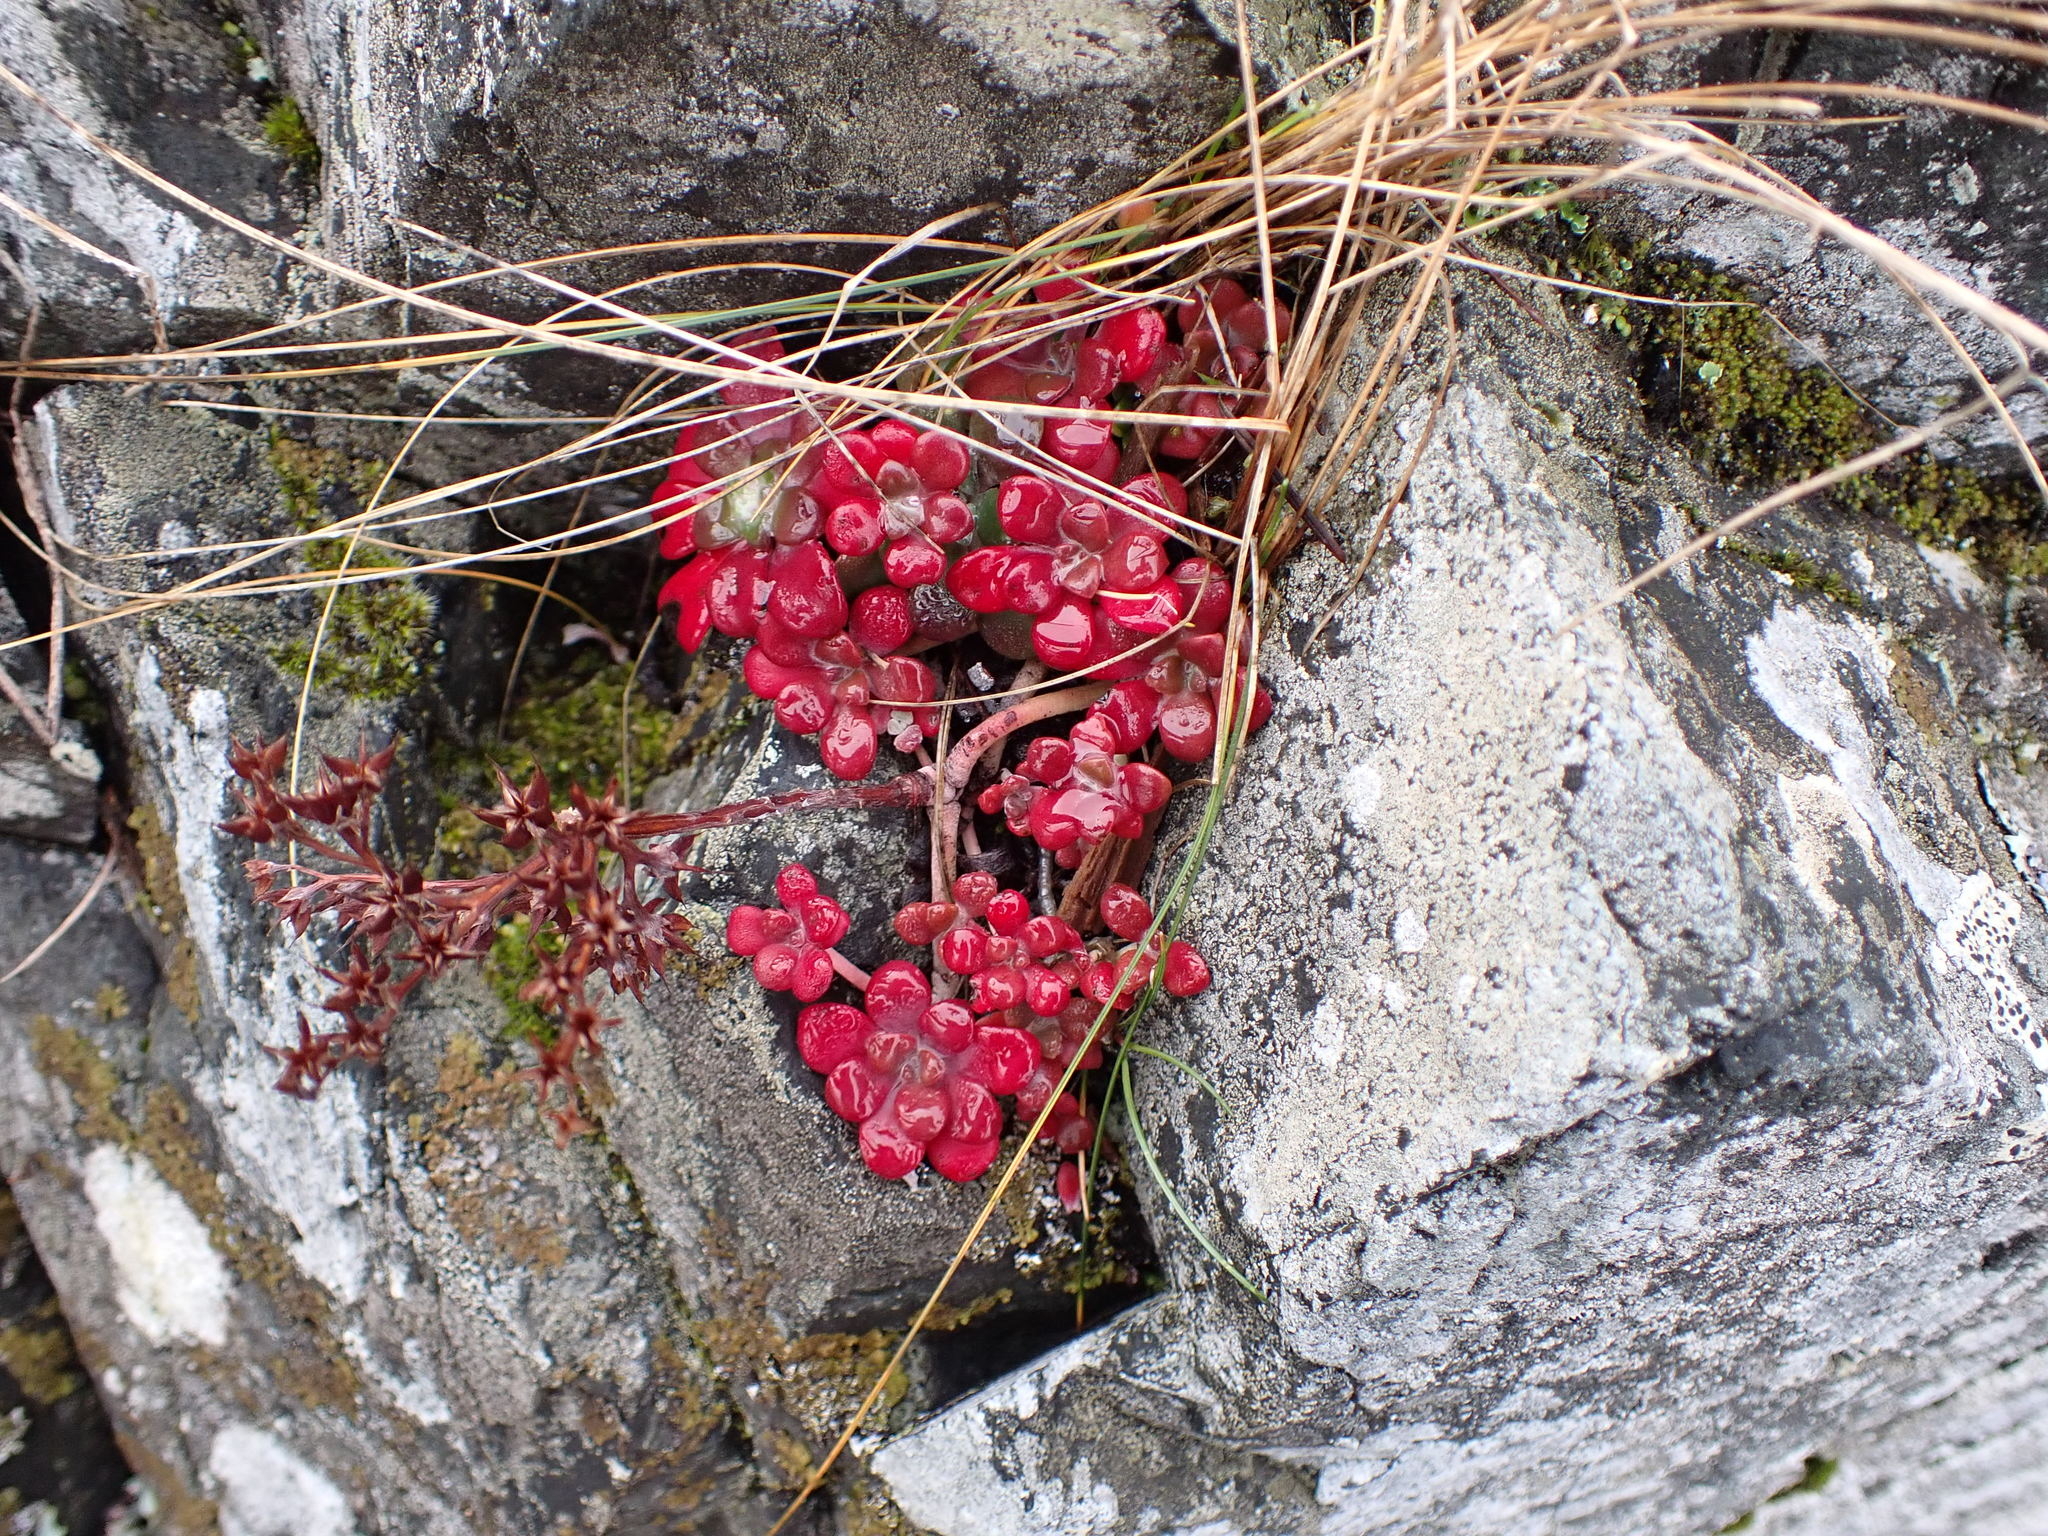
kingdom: Plantae
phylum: Tracheophyta
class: Magnoliopsida
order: Saxifragales
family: Crassulaceae
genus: Sedum
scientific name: Sedum spathulifolium
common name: Colorado stonecrop
